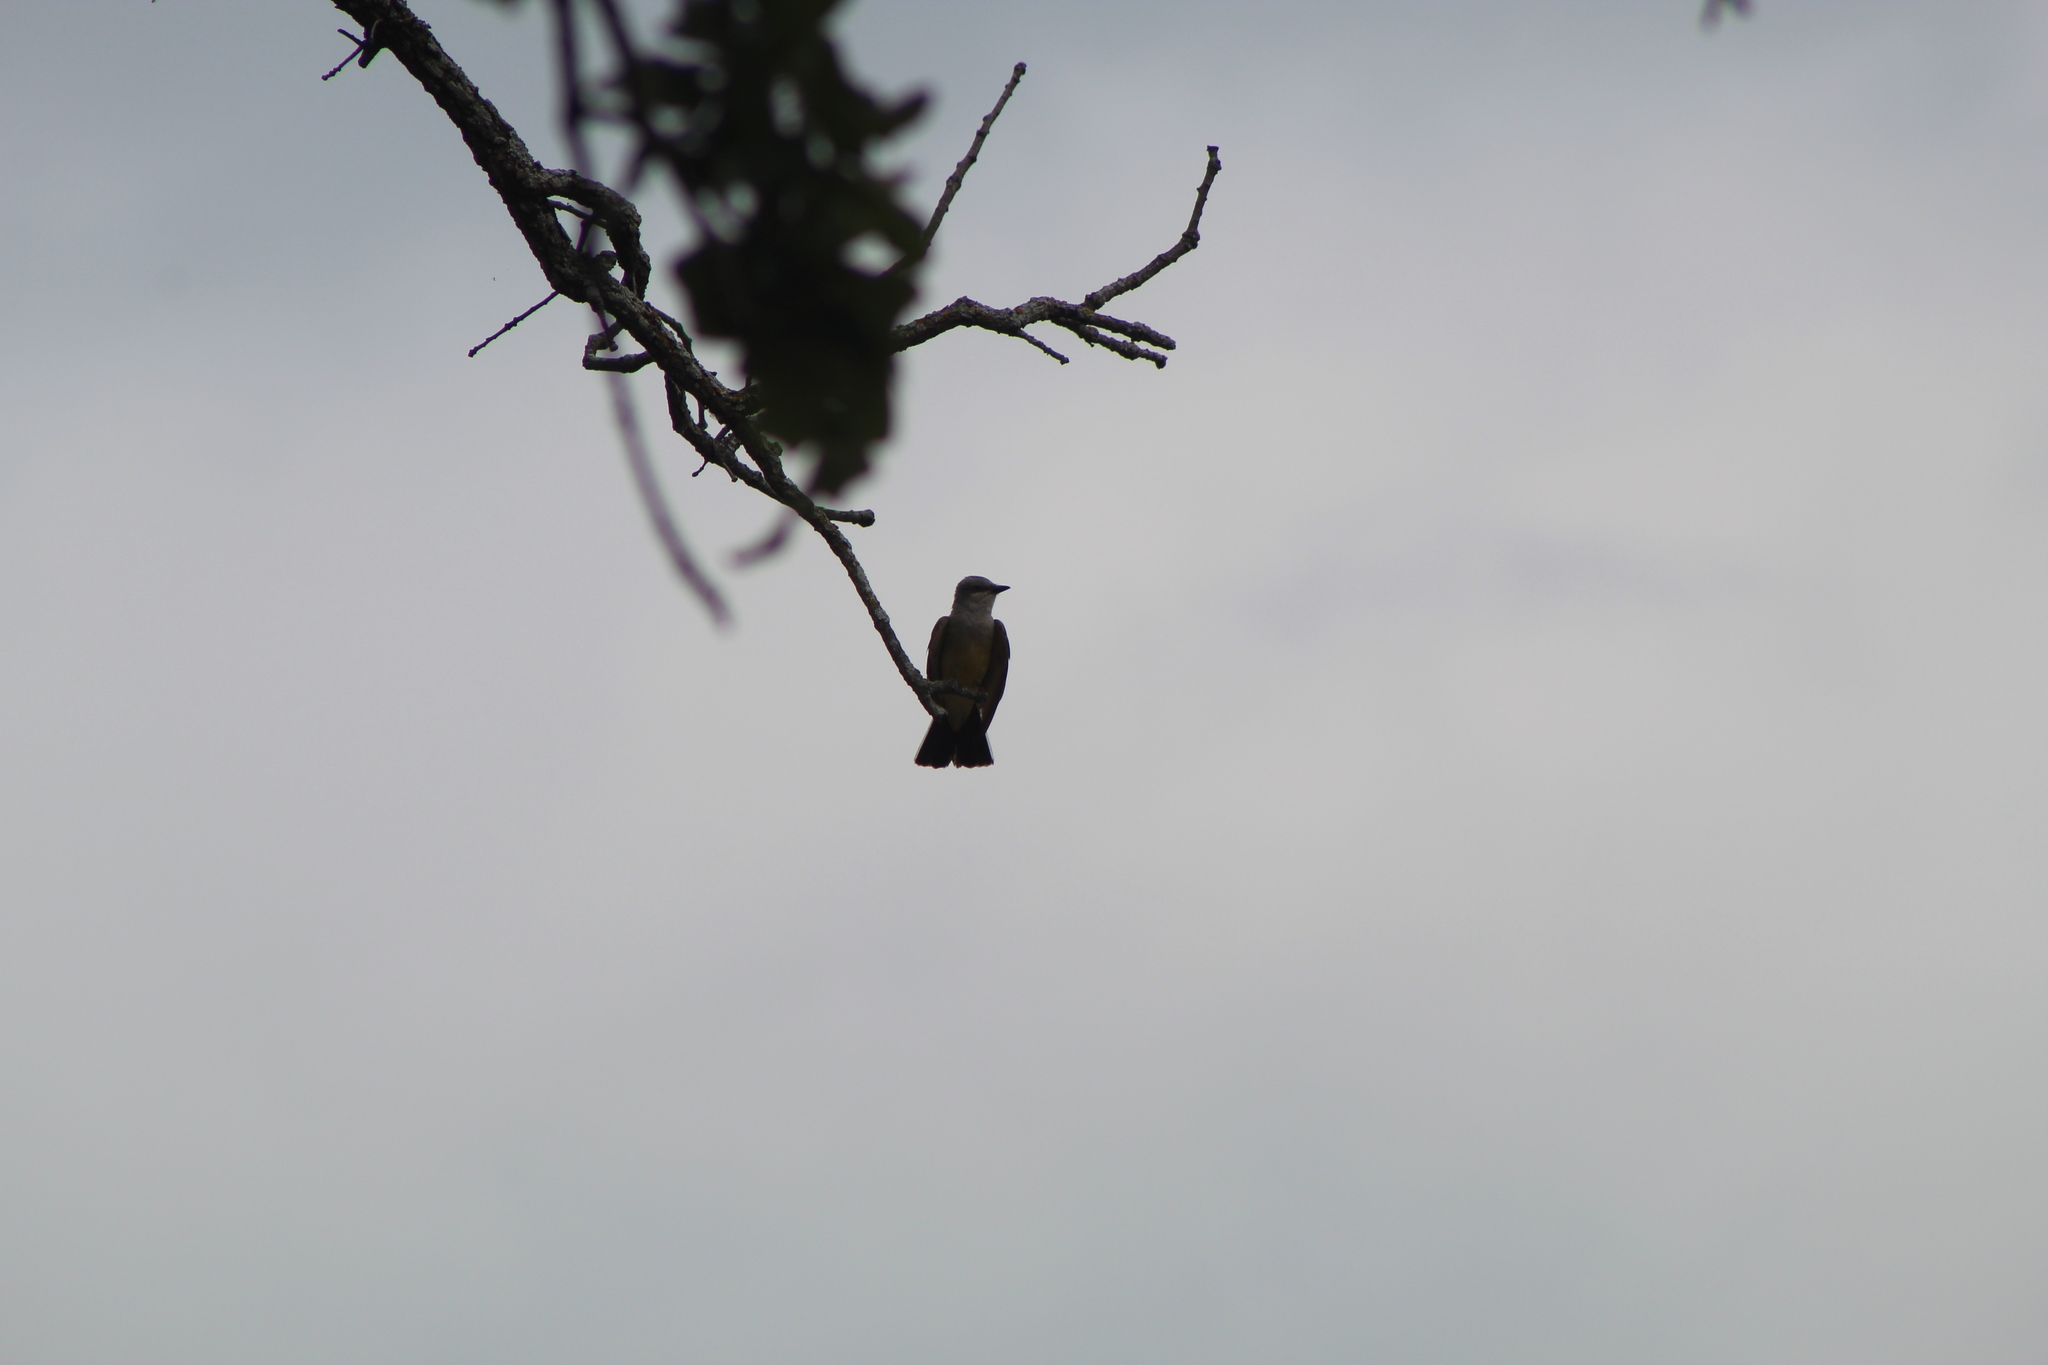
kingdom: Animalia
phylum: Chordata
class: Aves
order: Passeriformes
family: Tyrannidae
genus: Tyrannus
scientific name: Tyrannus verticalis
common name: Western kingbird
